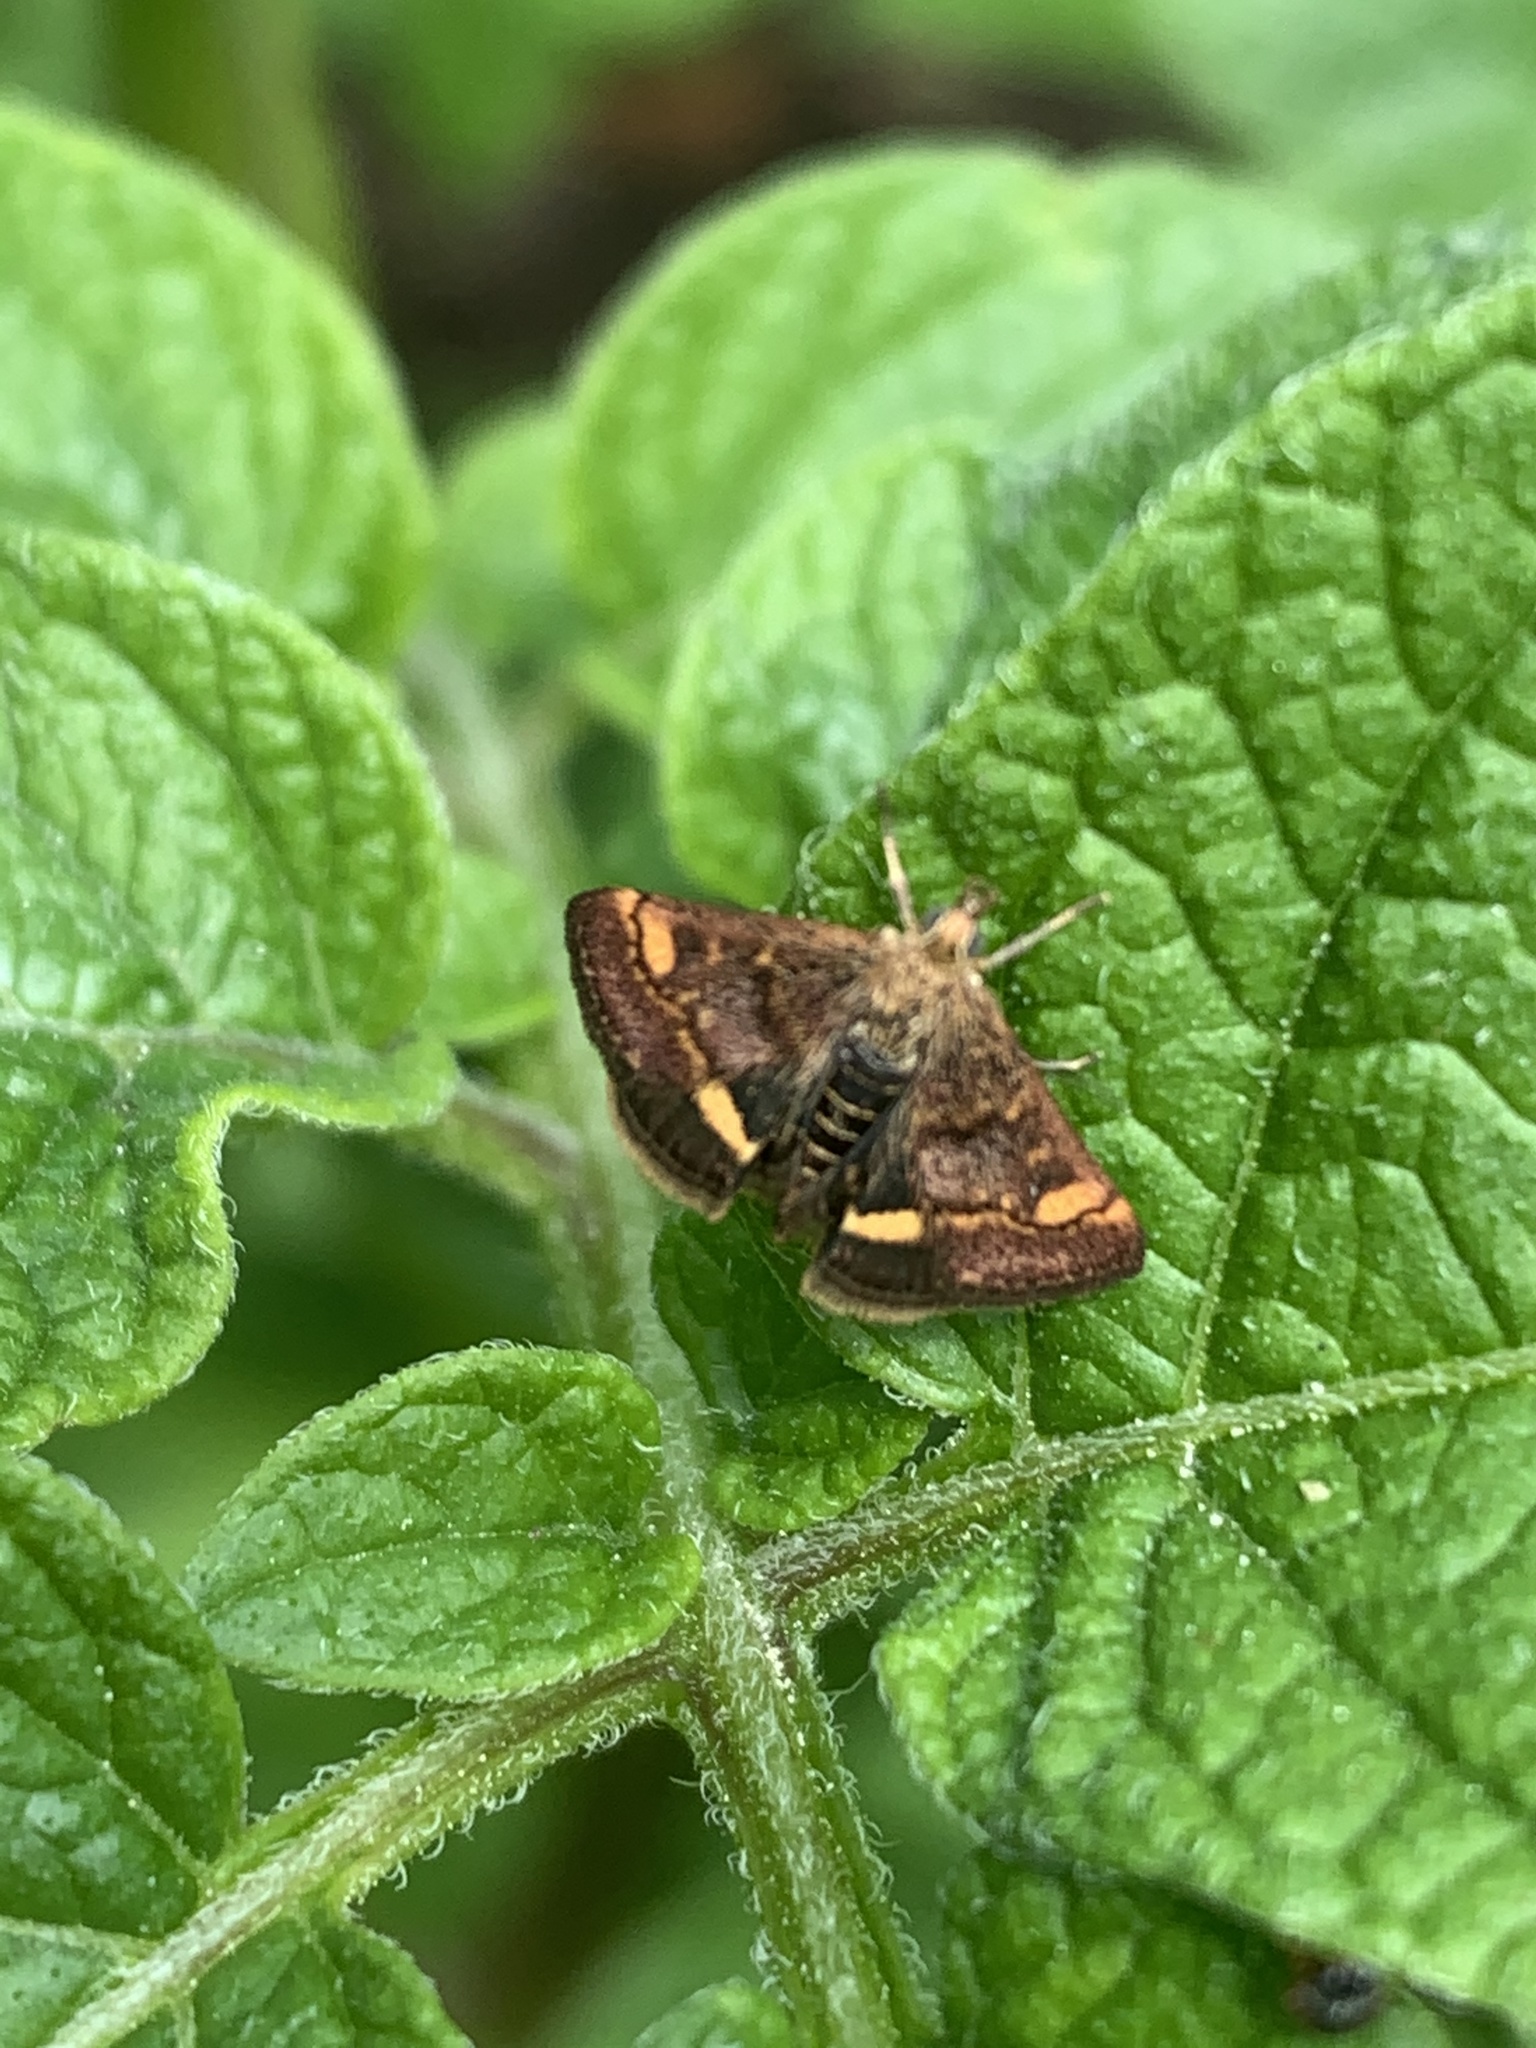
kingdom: Animalia
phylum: Arthropoda
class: Insecta
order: Lepidoptera
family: Crambidae
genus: Pyrausta
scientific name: Pyrausta aurata
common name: Small purple & gold
